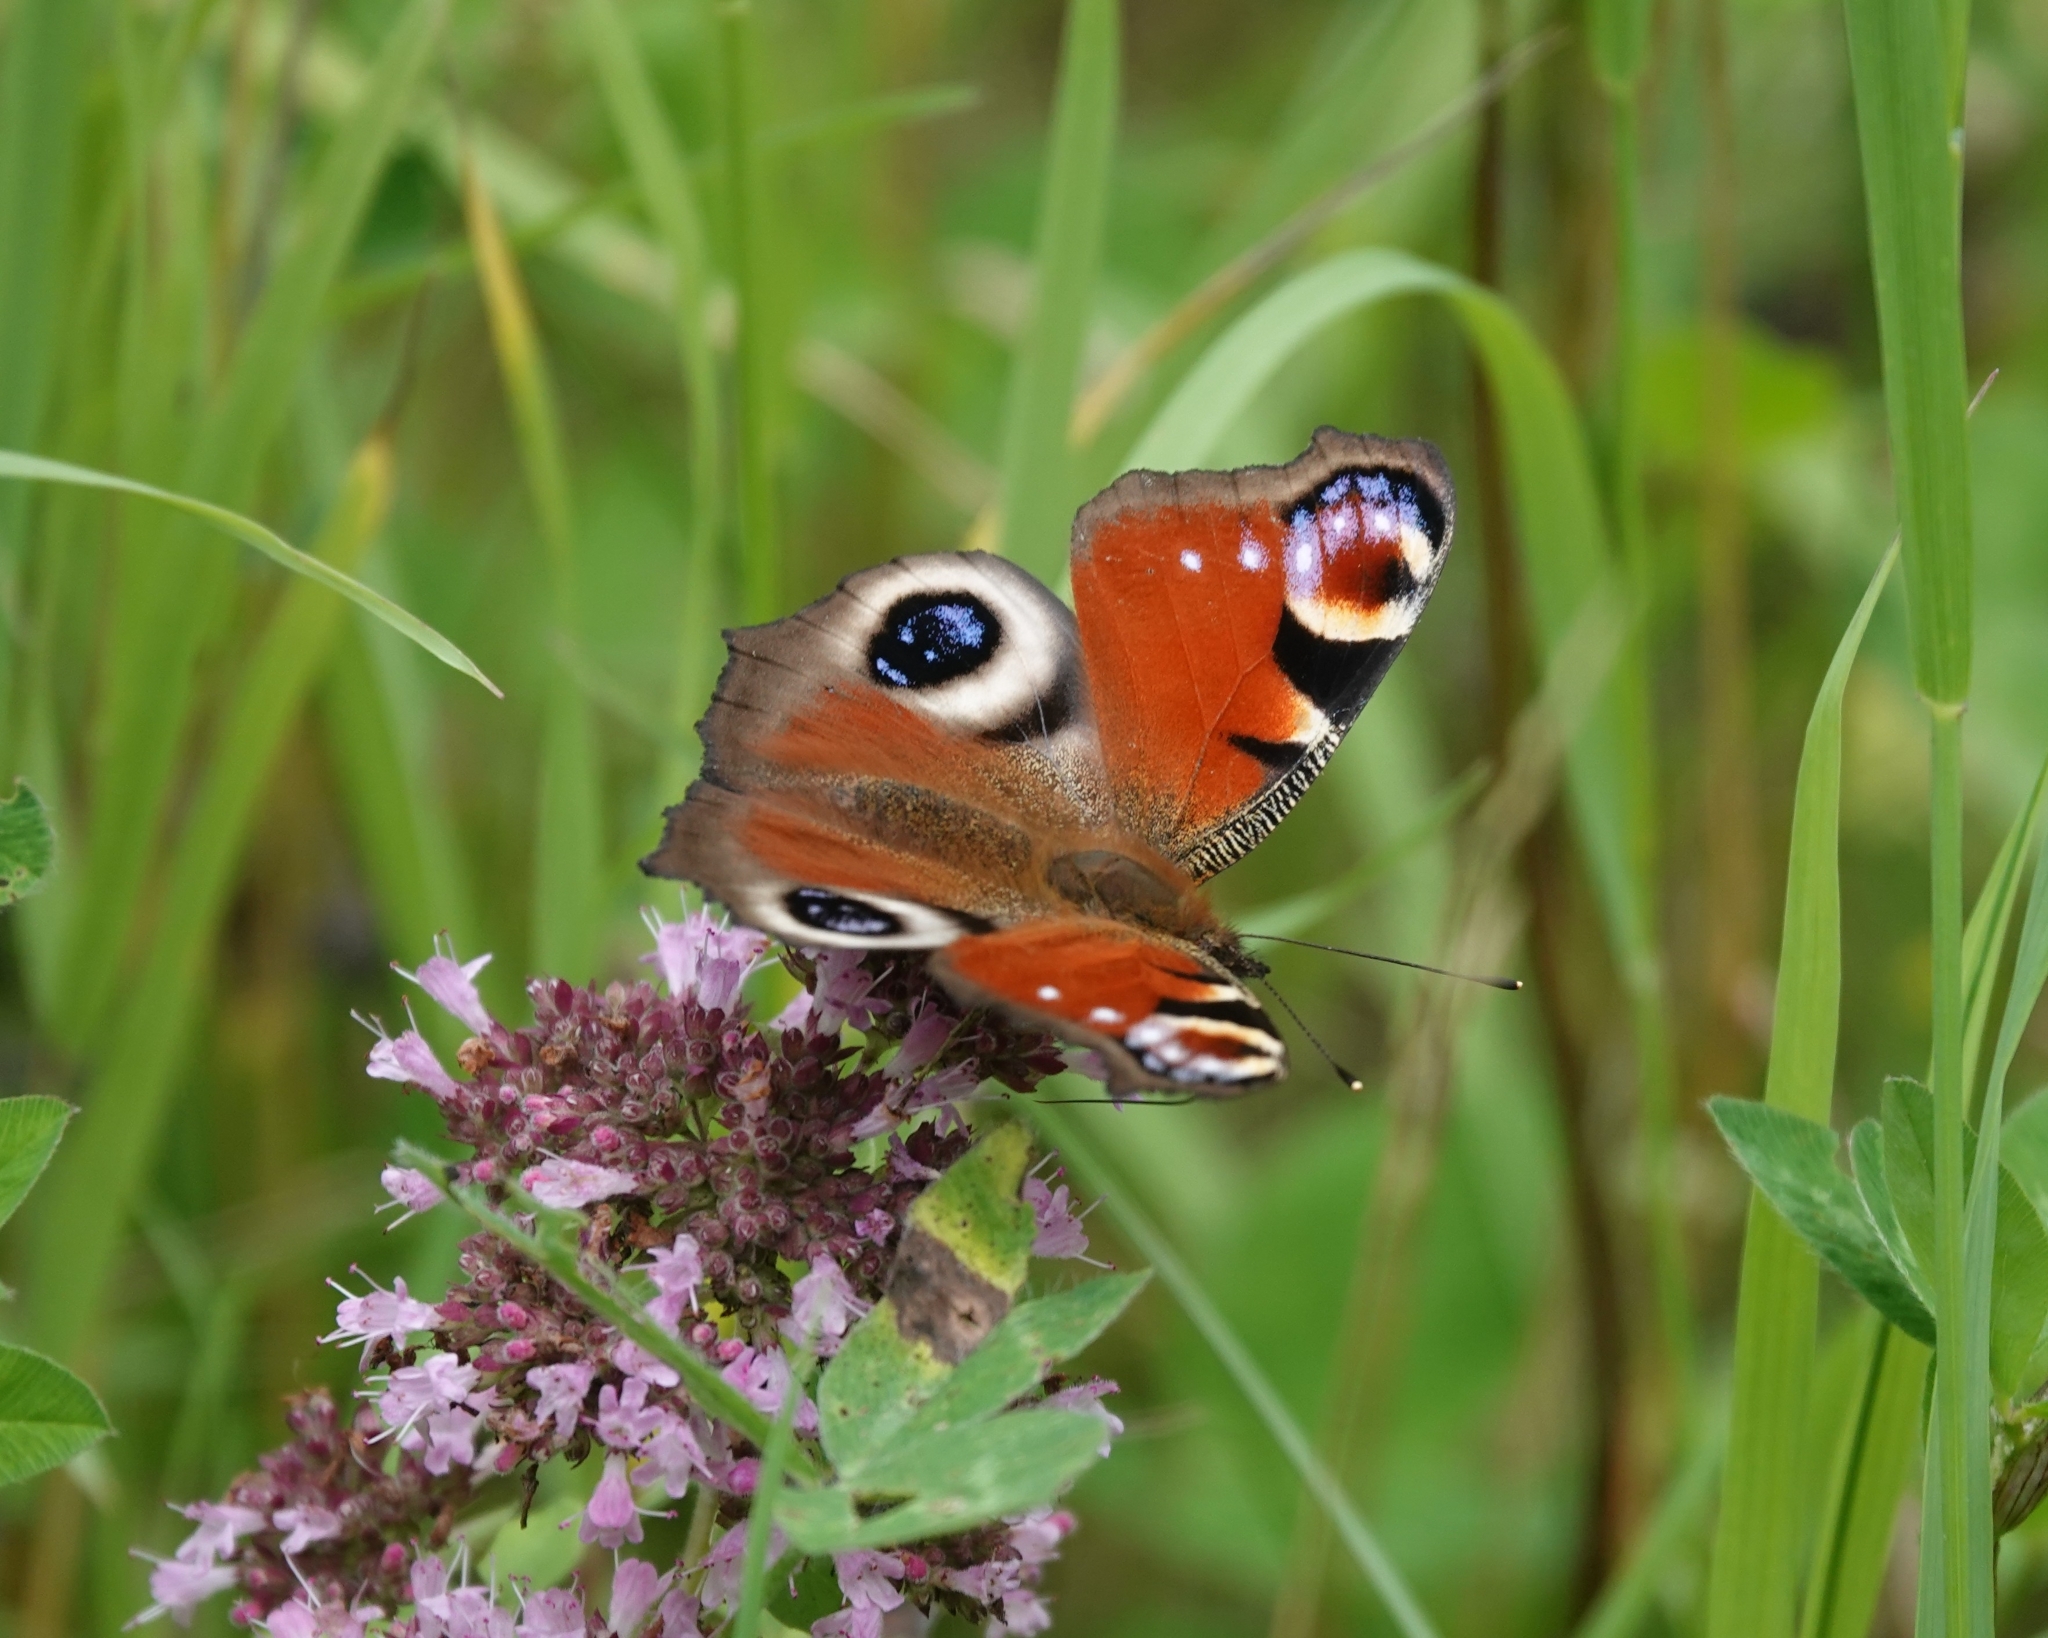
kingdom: Animalia
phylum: Arthropoda
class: Insecta
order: Lepidoptera
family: Nymphalidae
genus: Aglais
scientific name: Aglais io
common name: Peacock
